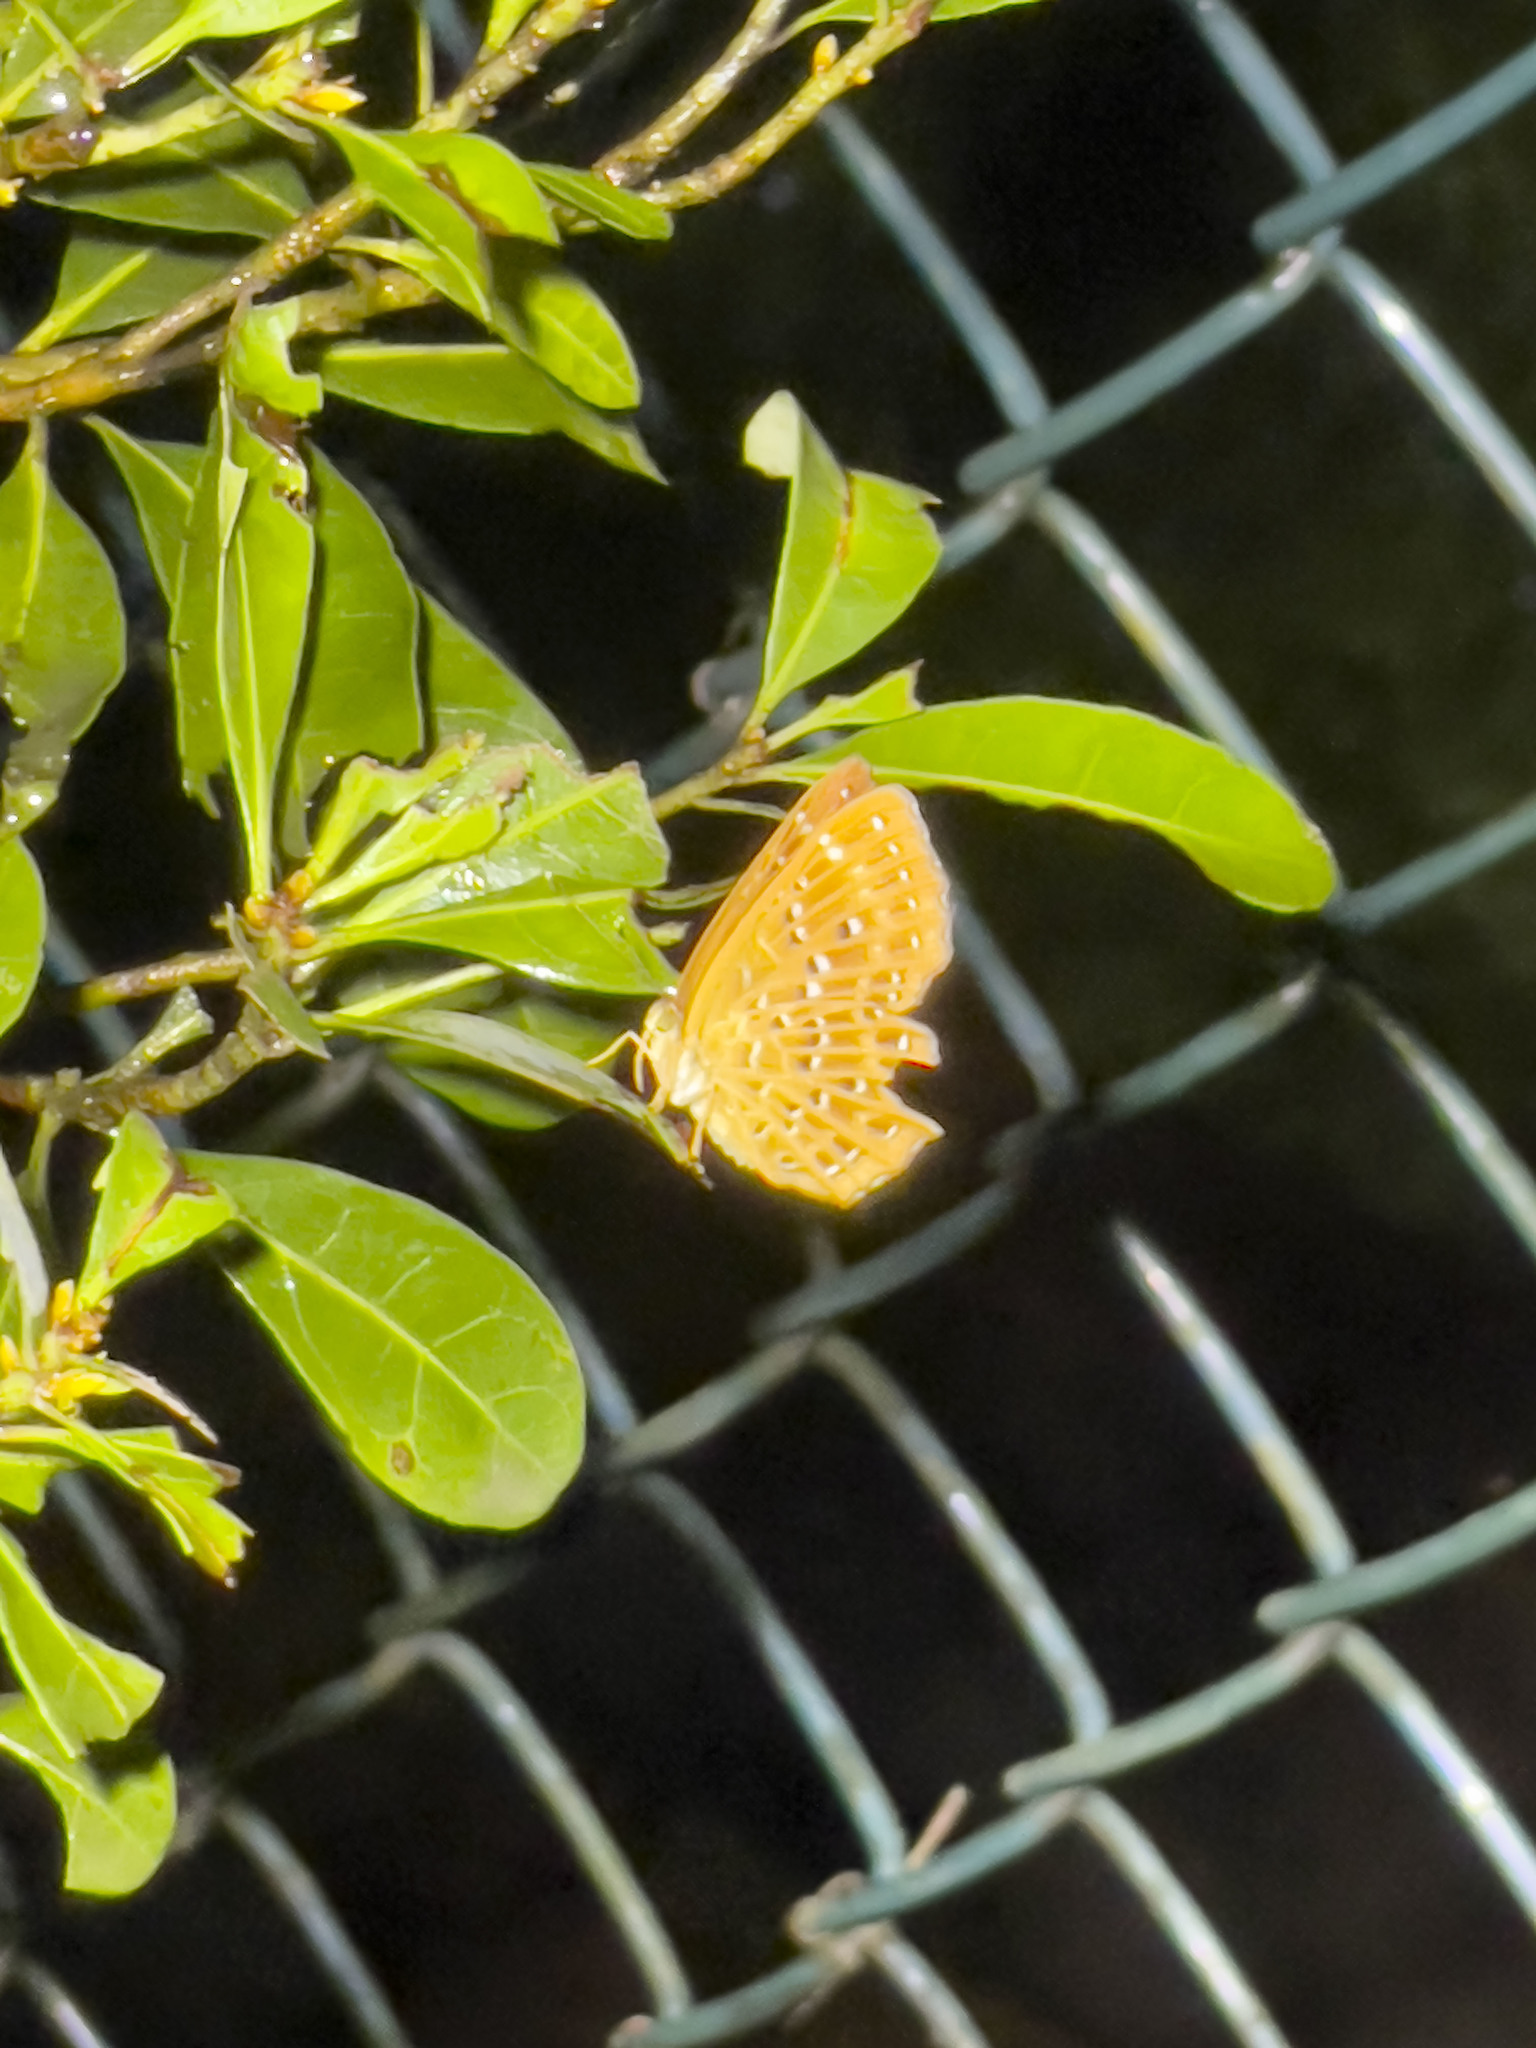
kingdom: Animalia
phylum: Arthropoda
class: Insecta
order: Lepidoptera
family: Riodinidae
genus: Zemeros
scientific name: Zemeros flegyas
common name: Punchinello
